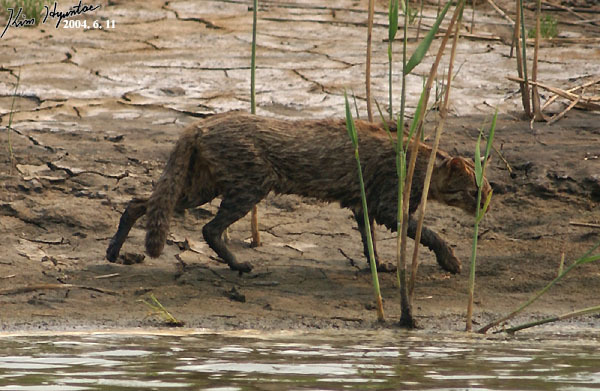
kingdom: Animalia
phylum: Chordata
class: Mammalia
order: Carnivora
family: Felidae
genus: Prionailurus
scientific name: Prionailurus bengalensis
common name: Leopard cat
